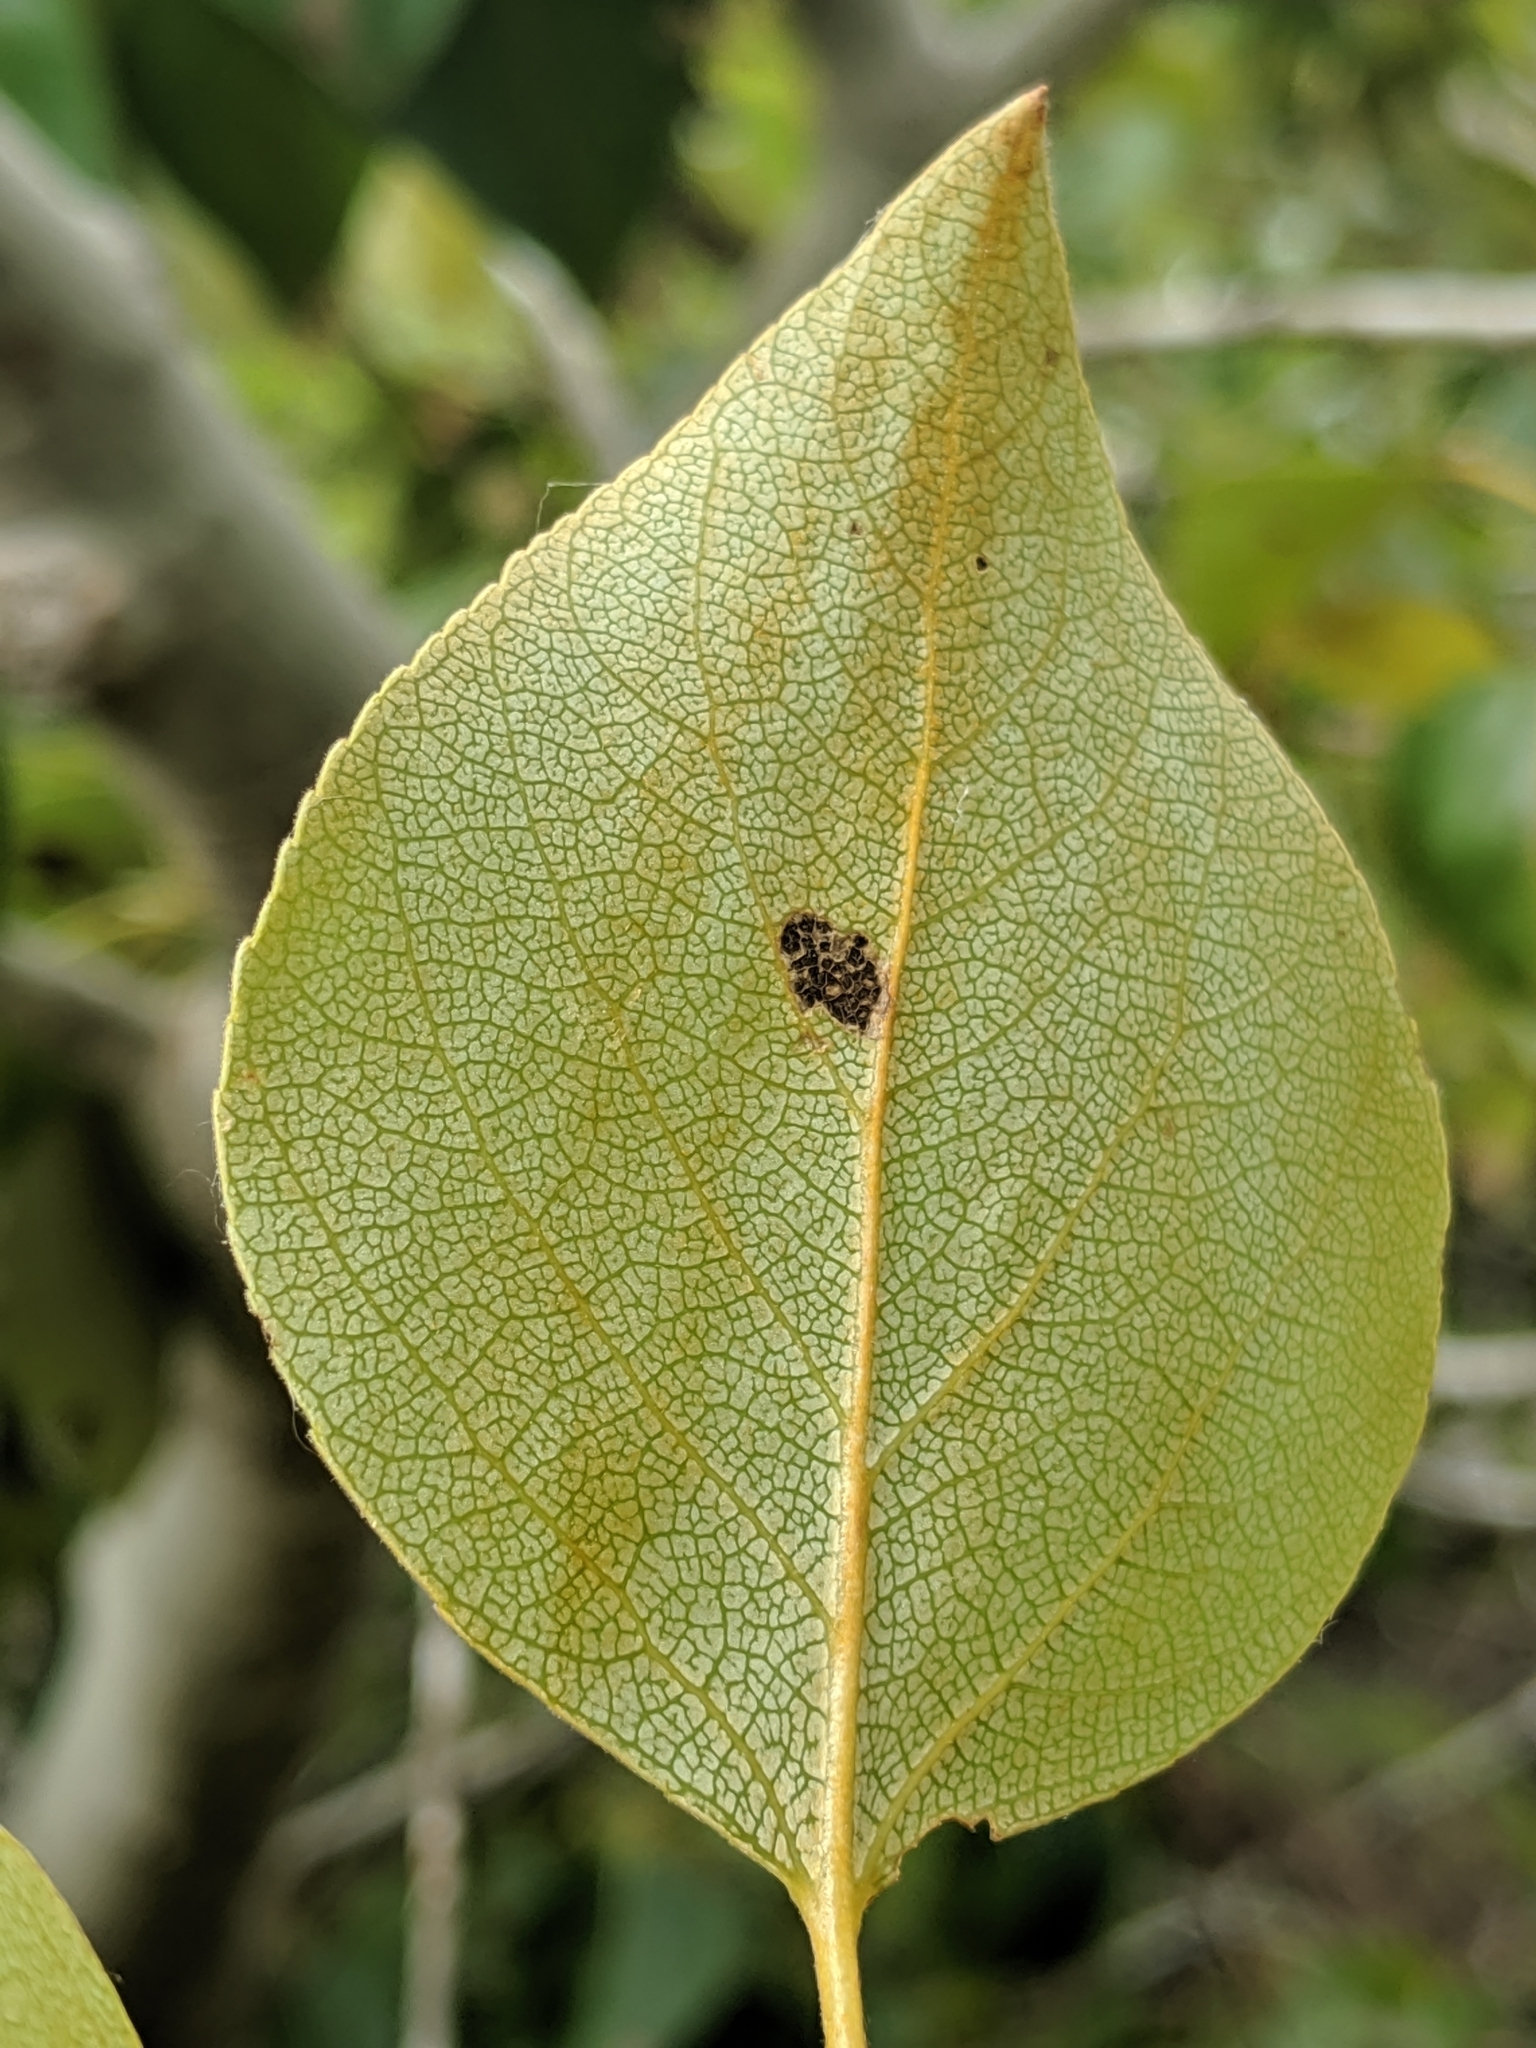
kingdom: Plantae
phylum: Tracheophyta
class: Magnoliopsida
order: Malpighiales
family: Salicaceae
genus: Populus
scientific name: Populus trichocarpa
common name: Black cottonwood
